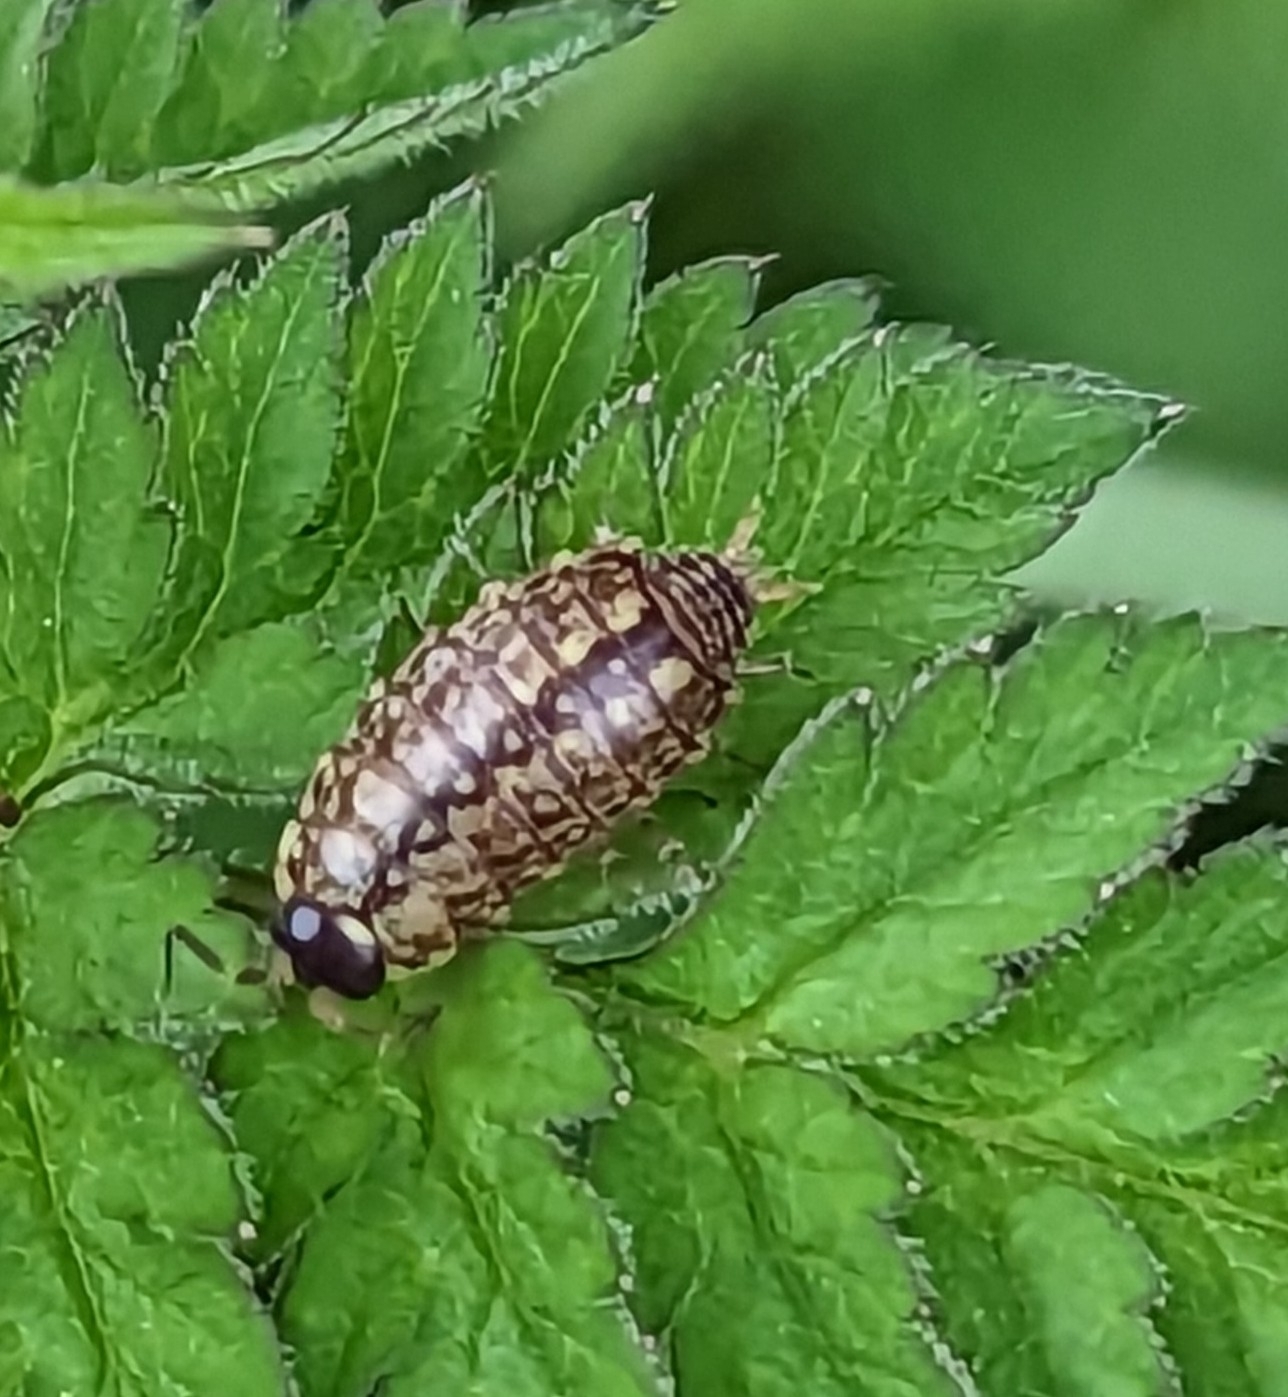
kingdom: Animalia
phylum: Arthropoda
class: Malacostraca
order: Isopoda
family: Philosciidae
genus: Philoscia
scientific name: Philoscia muscorum
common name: Common striped woodlouse
